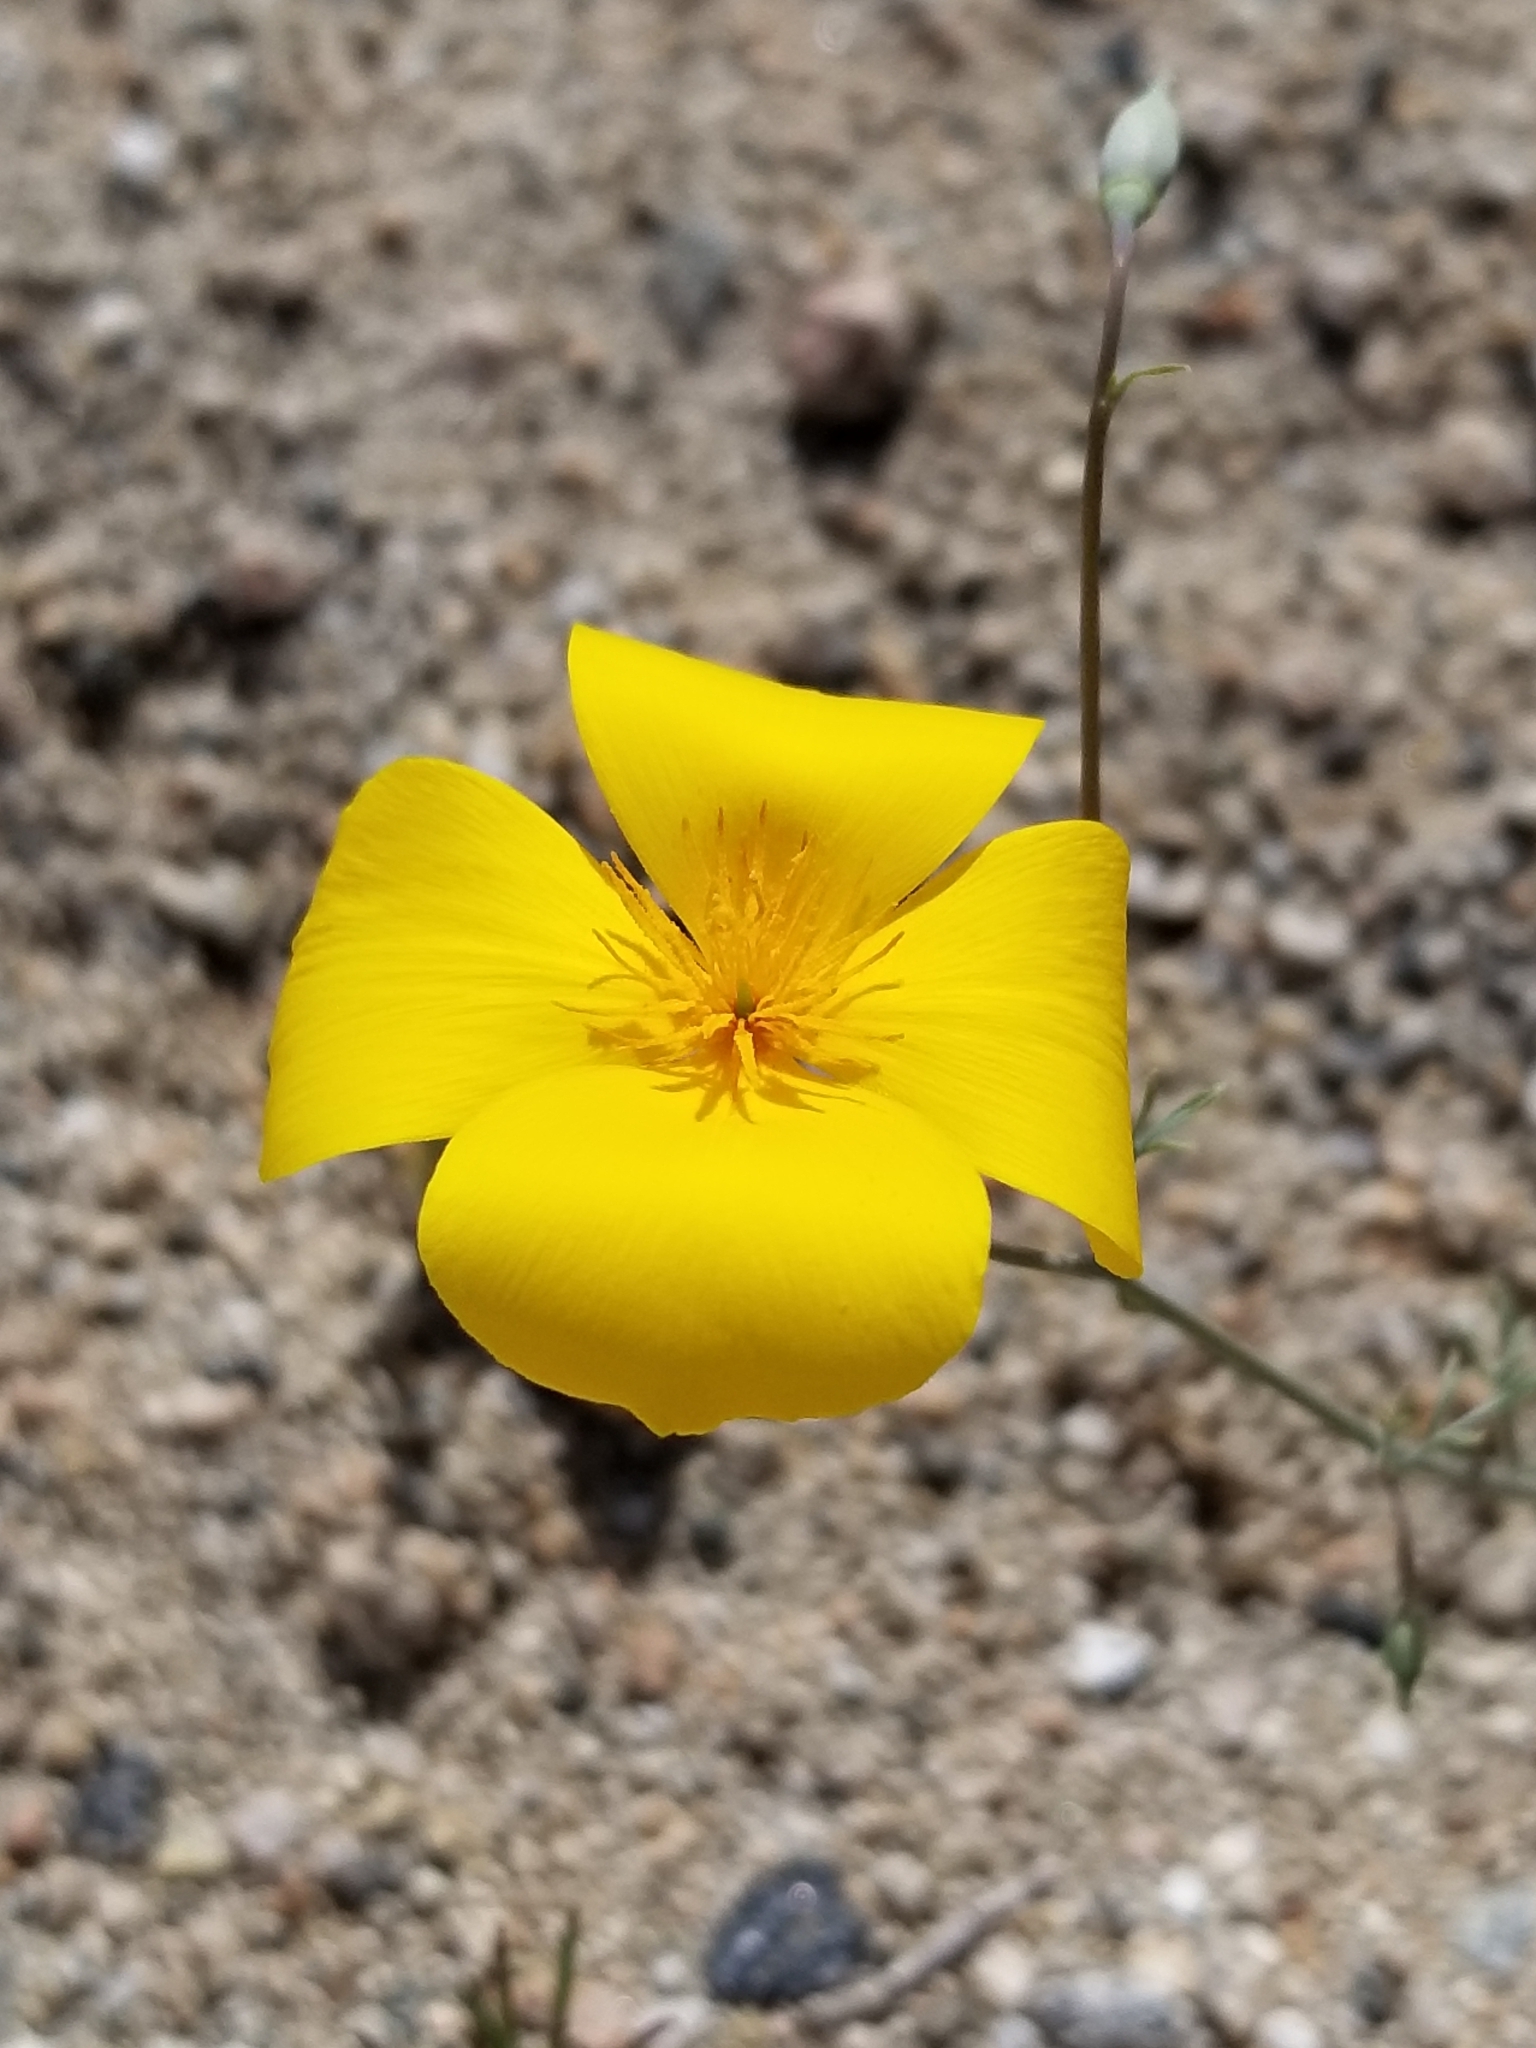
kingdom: Plantae
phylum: Tracheophyta
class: Magnoliopsida
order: Ranunculales
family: Papaveraceae
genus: Eschscholzia
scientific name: Eschscholzia parishii
